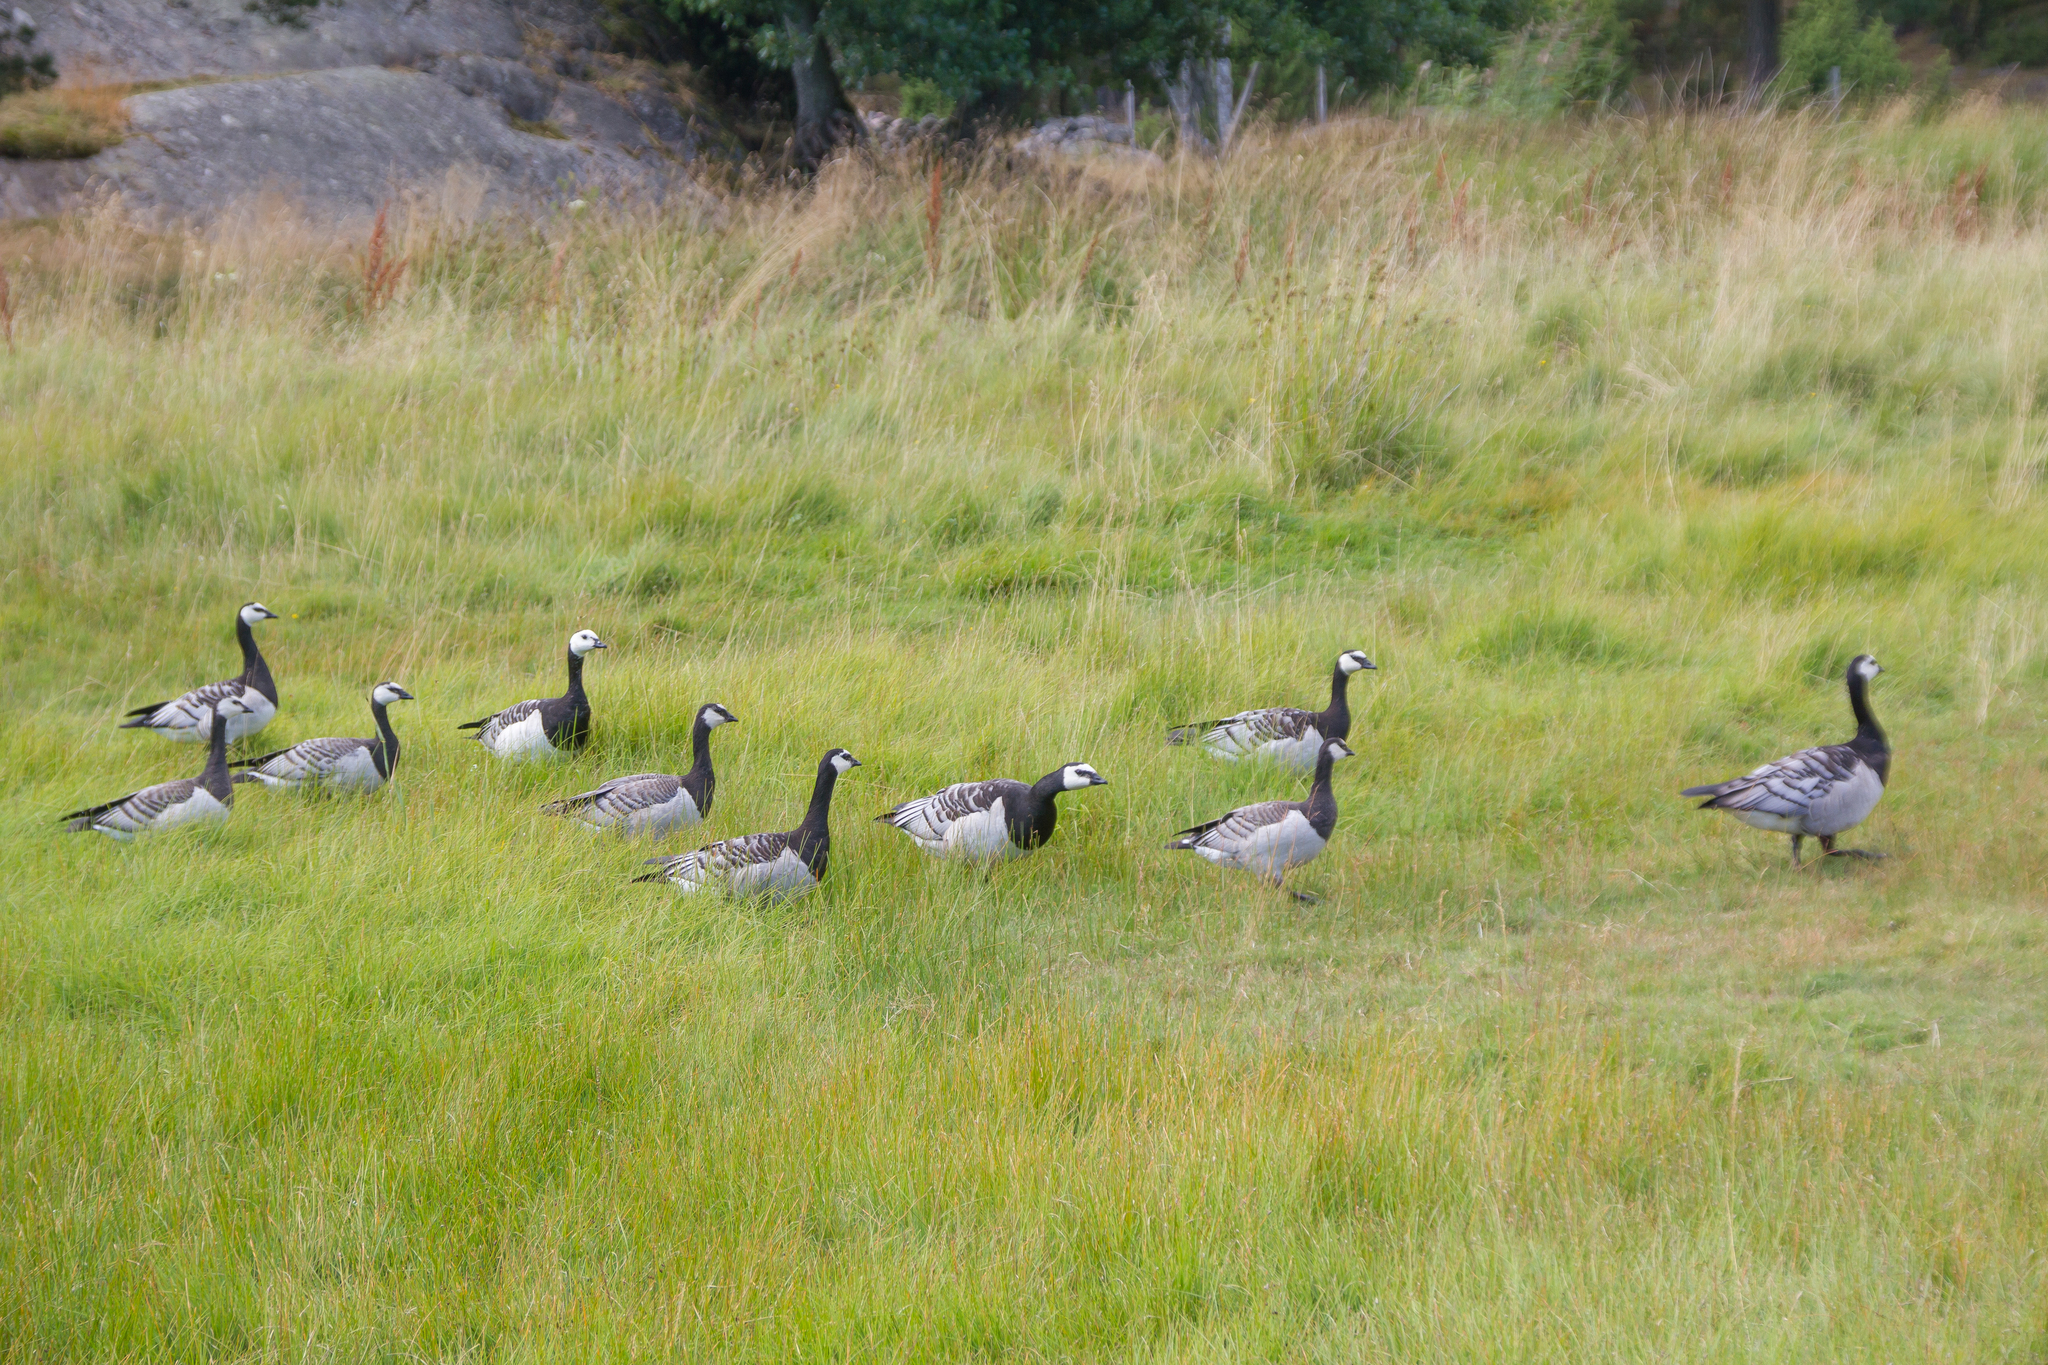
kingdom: Animalia
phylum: Chordata
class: Aves
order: Anseriformes
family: Anatidae
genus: Branta
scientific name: Branta leucopsis
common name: Barnacle goose
